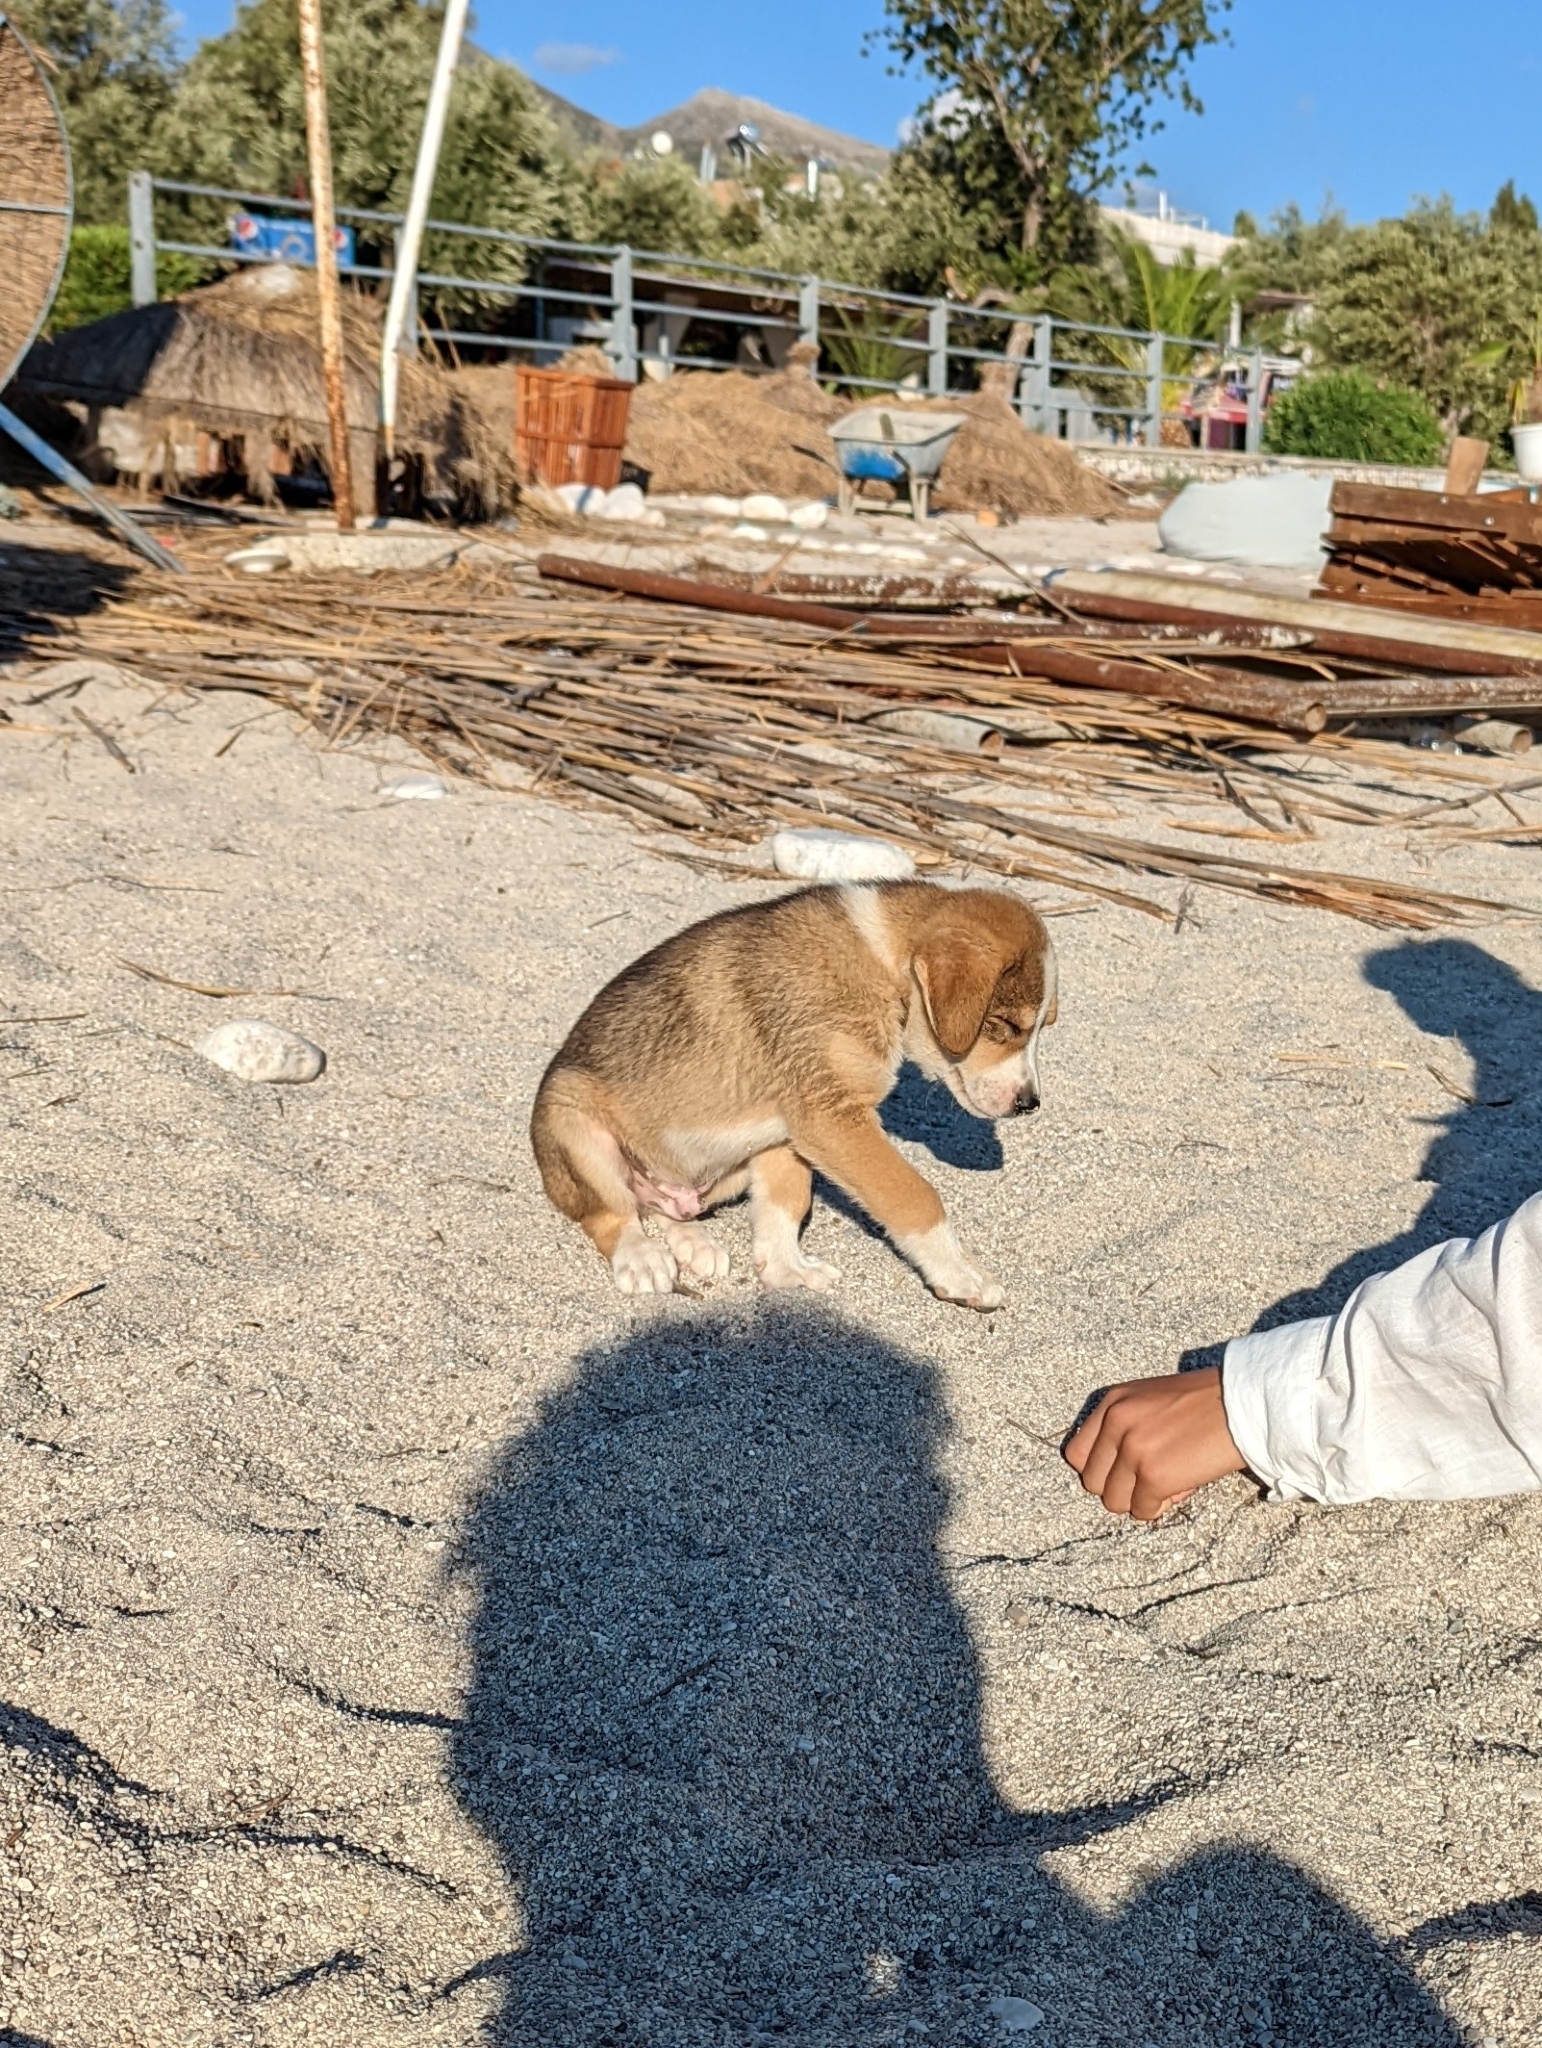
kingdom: Animalia
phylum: Chordata
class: Mammalia
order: Carnivora
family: Canidae
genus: Canis
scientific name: Canis lupus
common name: Gray wolf
